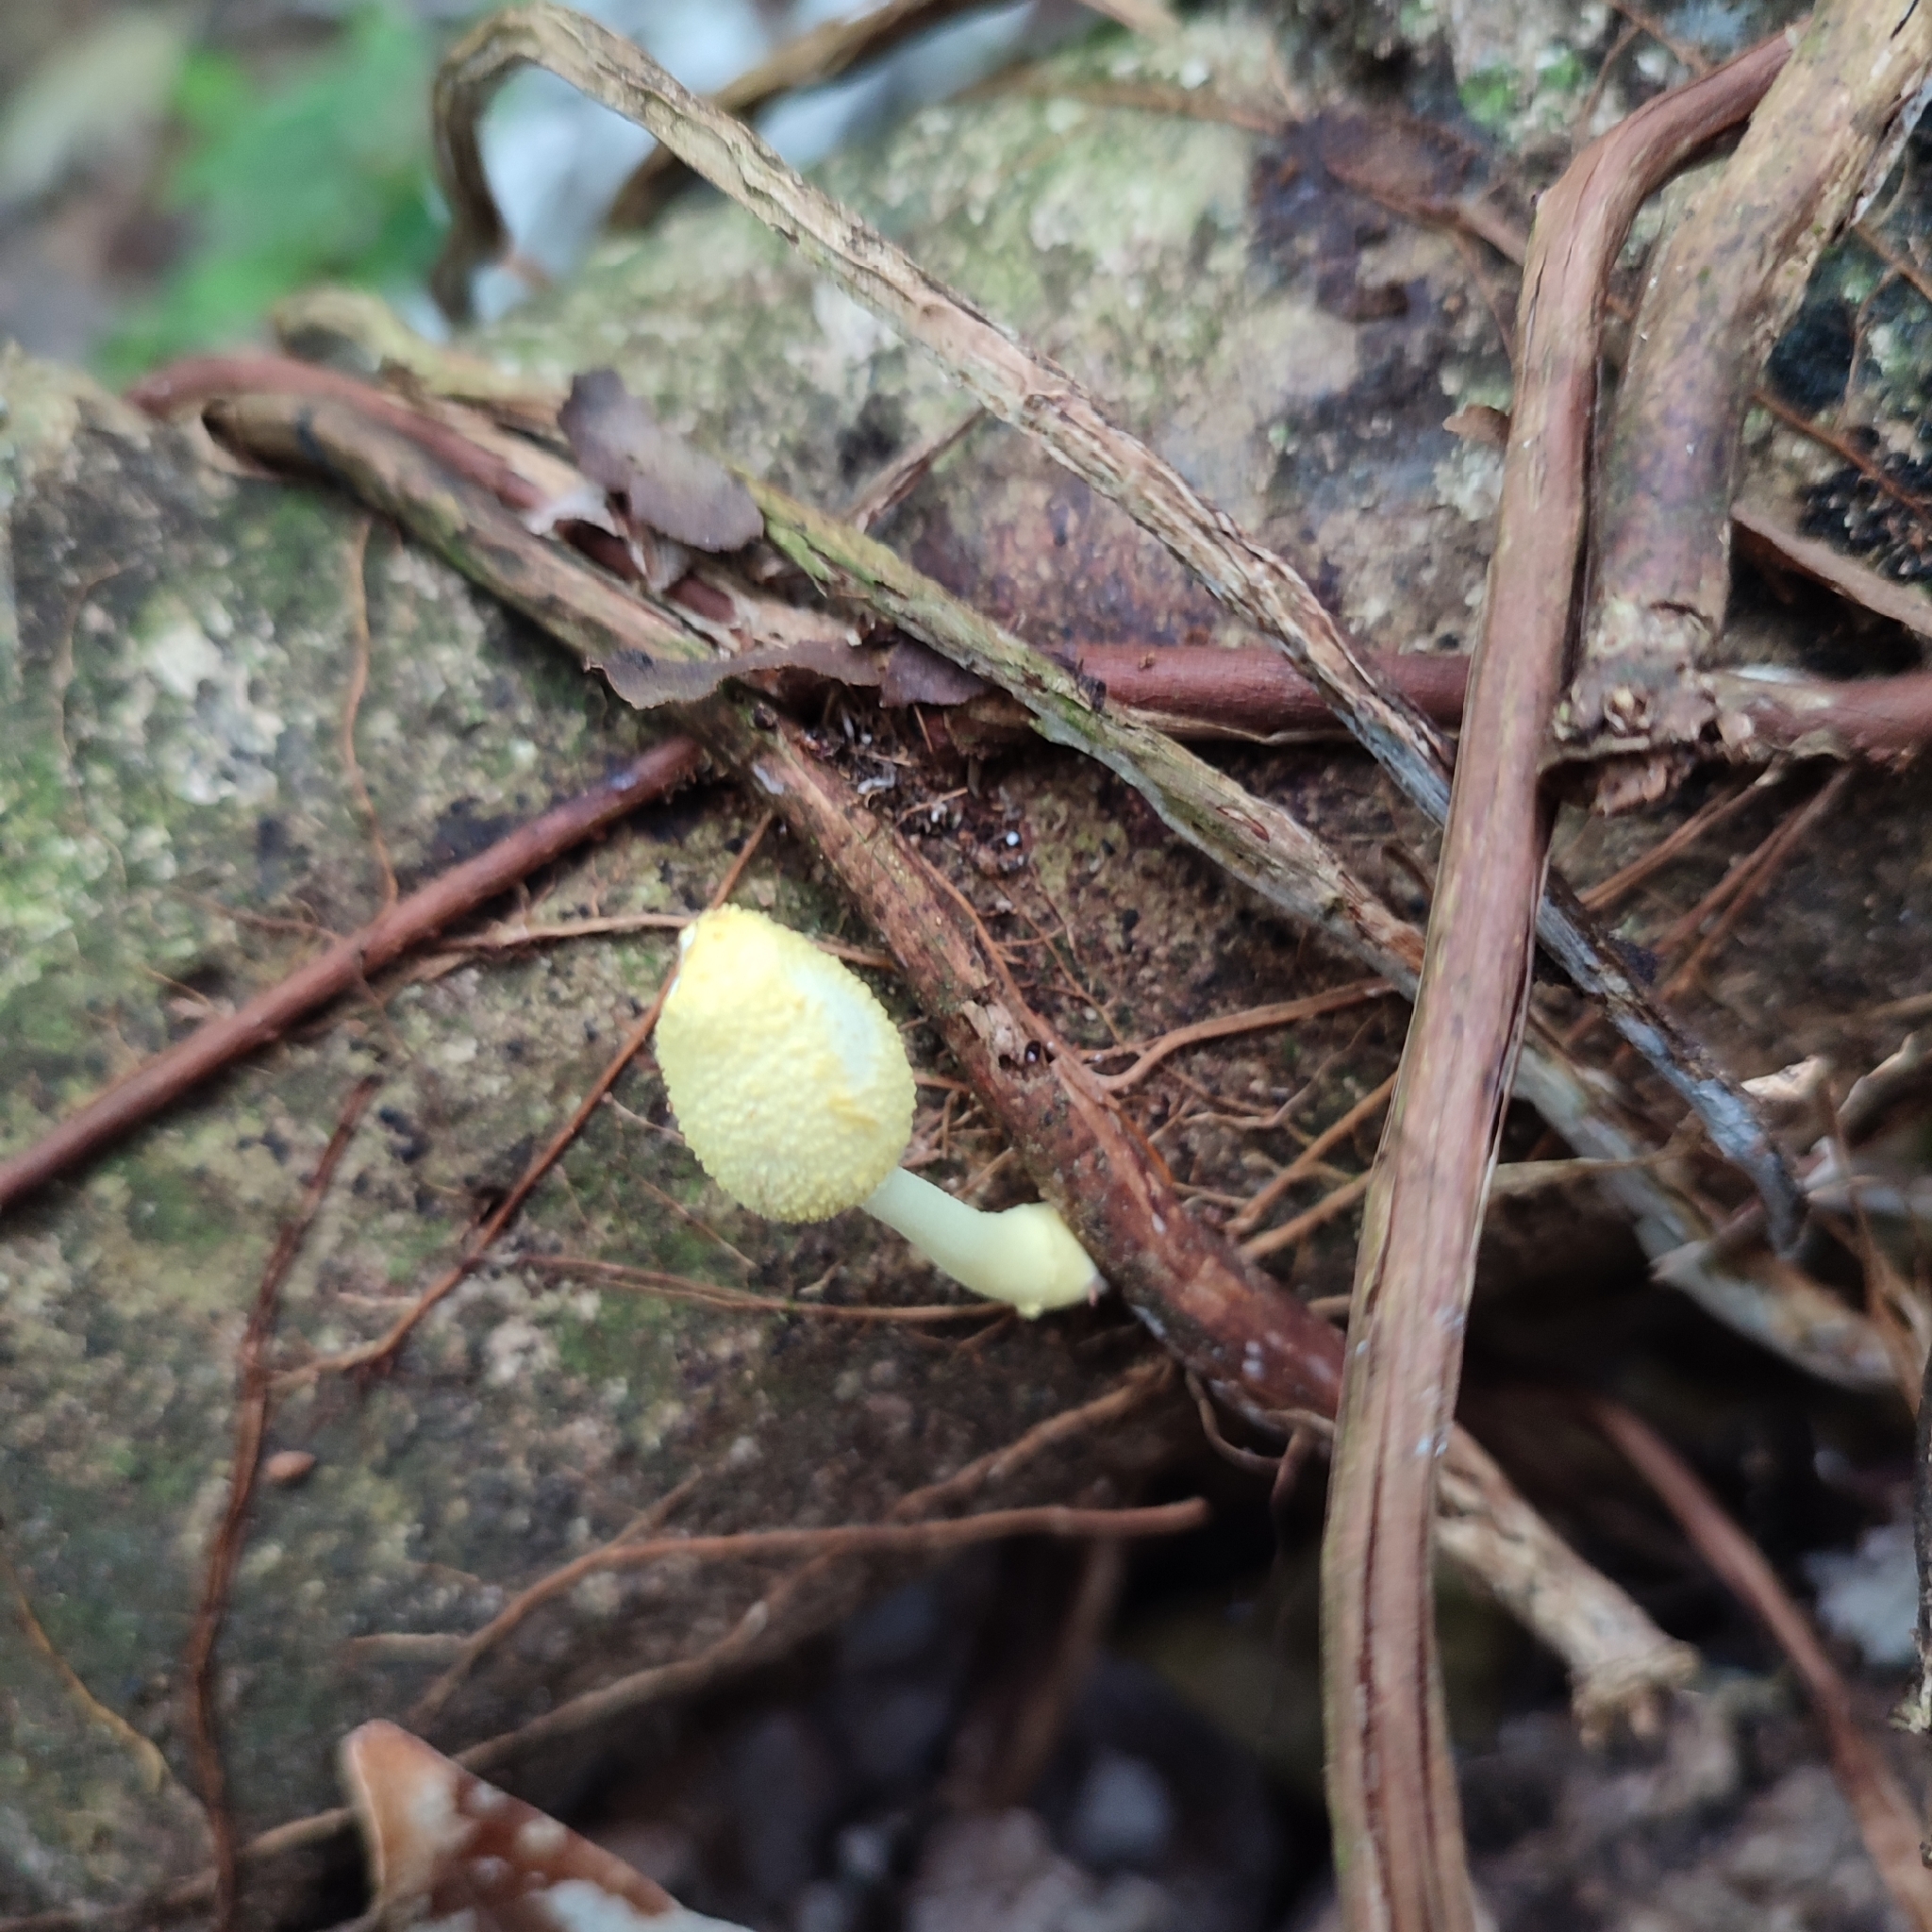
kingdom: Fungi
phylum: Basidiomycota
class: Agaricomycetes
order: Agaricales
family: Agaricaceae
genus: Leucocoprinus
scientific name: Leucocoprinus birnbaumii
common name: Plantpot dapperling
